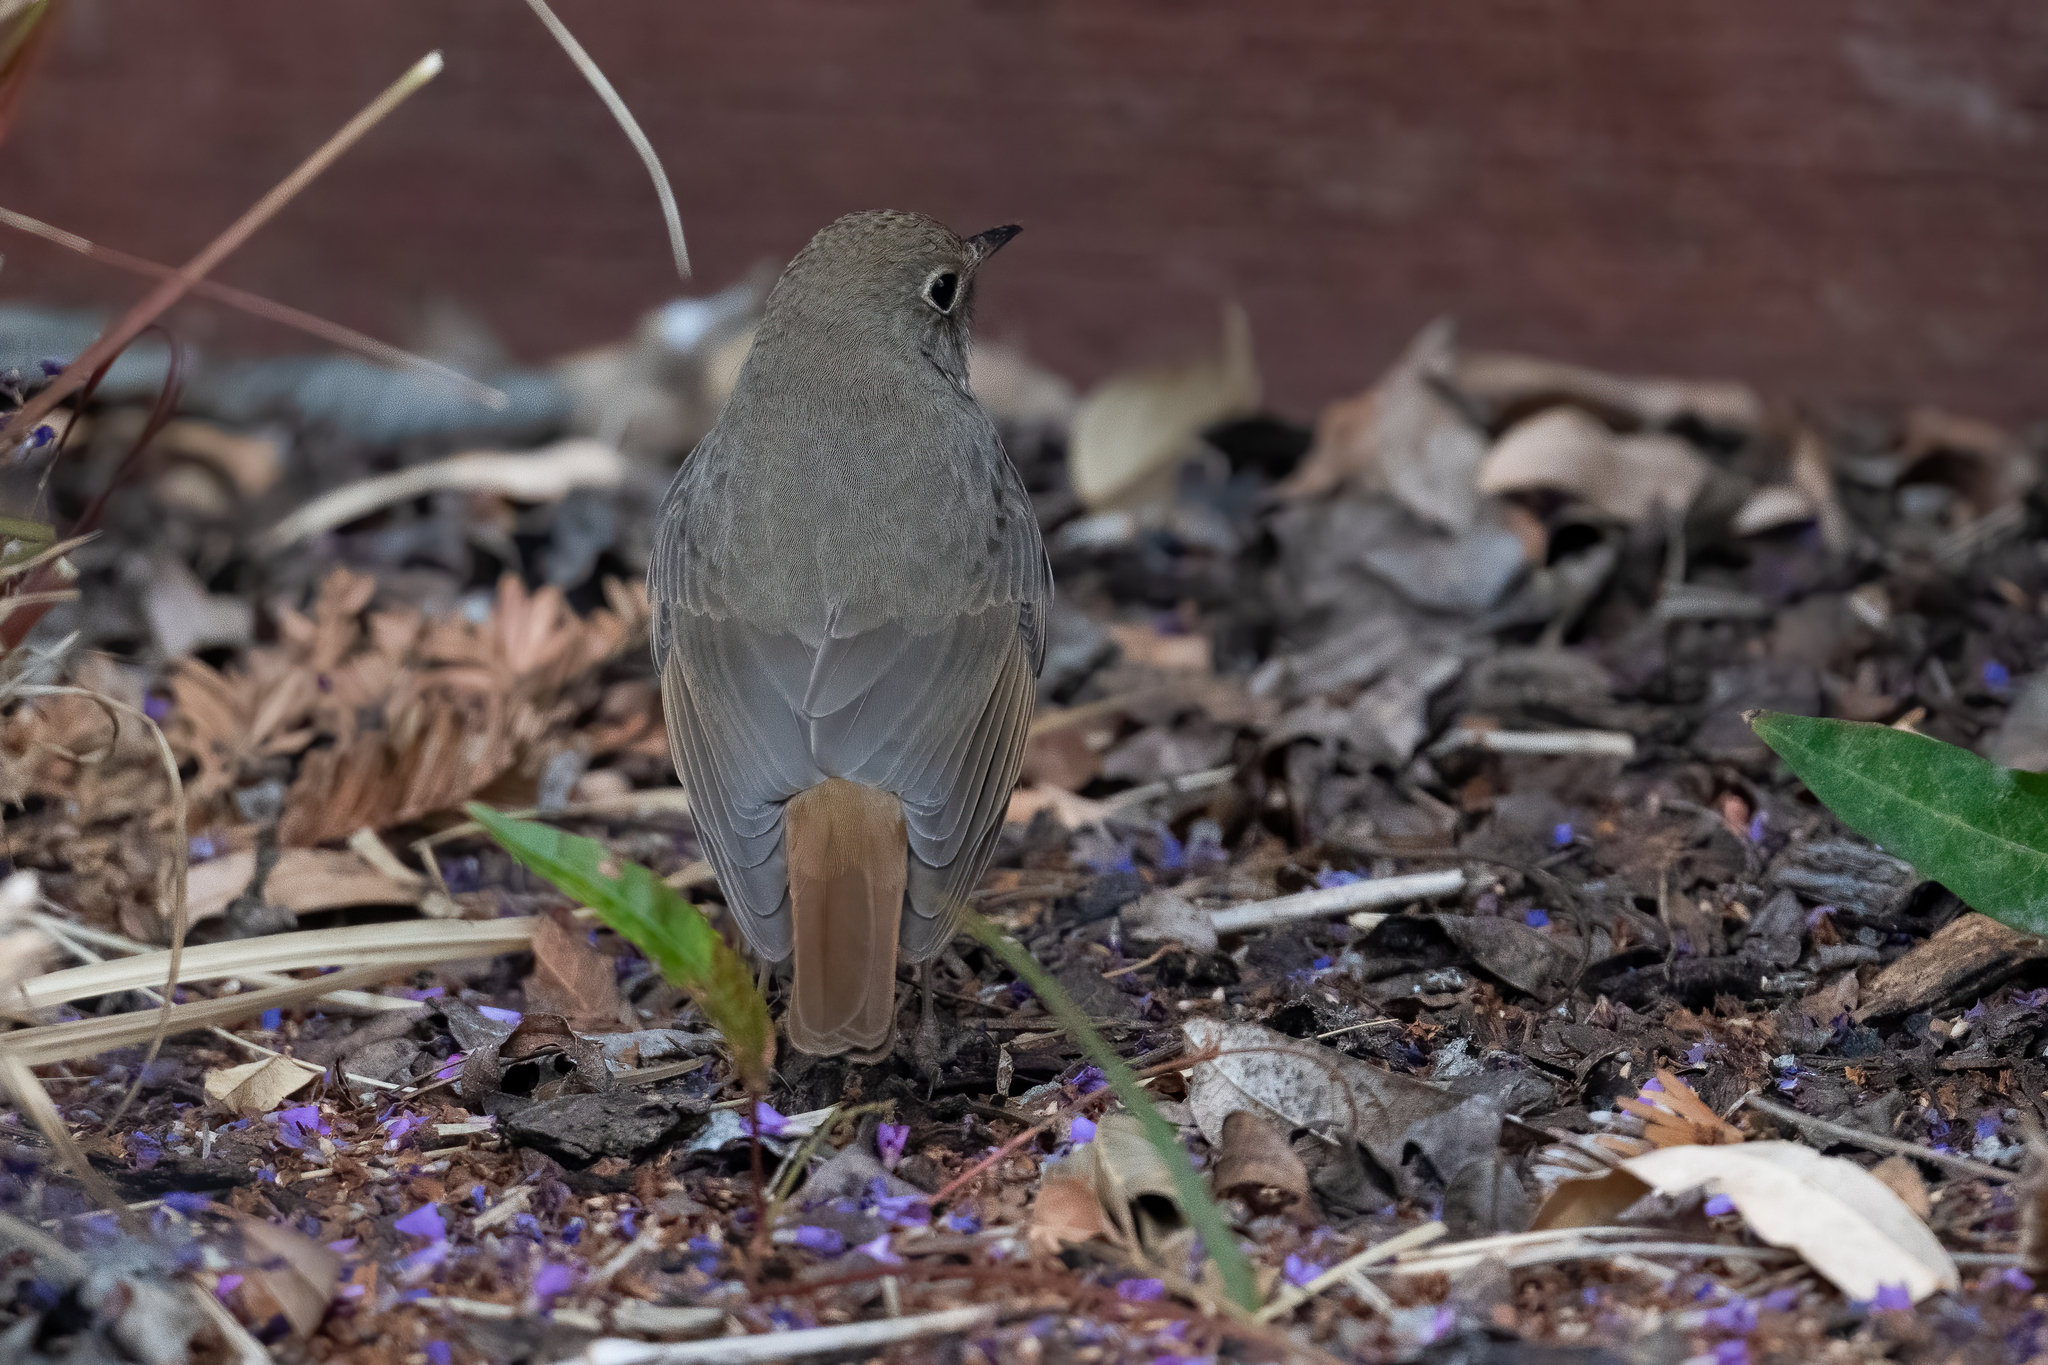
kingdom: Animalia
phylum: Chordata
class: Aves
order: Passeriformes
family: Turdidae
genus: Catharus
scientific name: Catharus guttatus
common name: Hermit thrush
